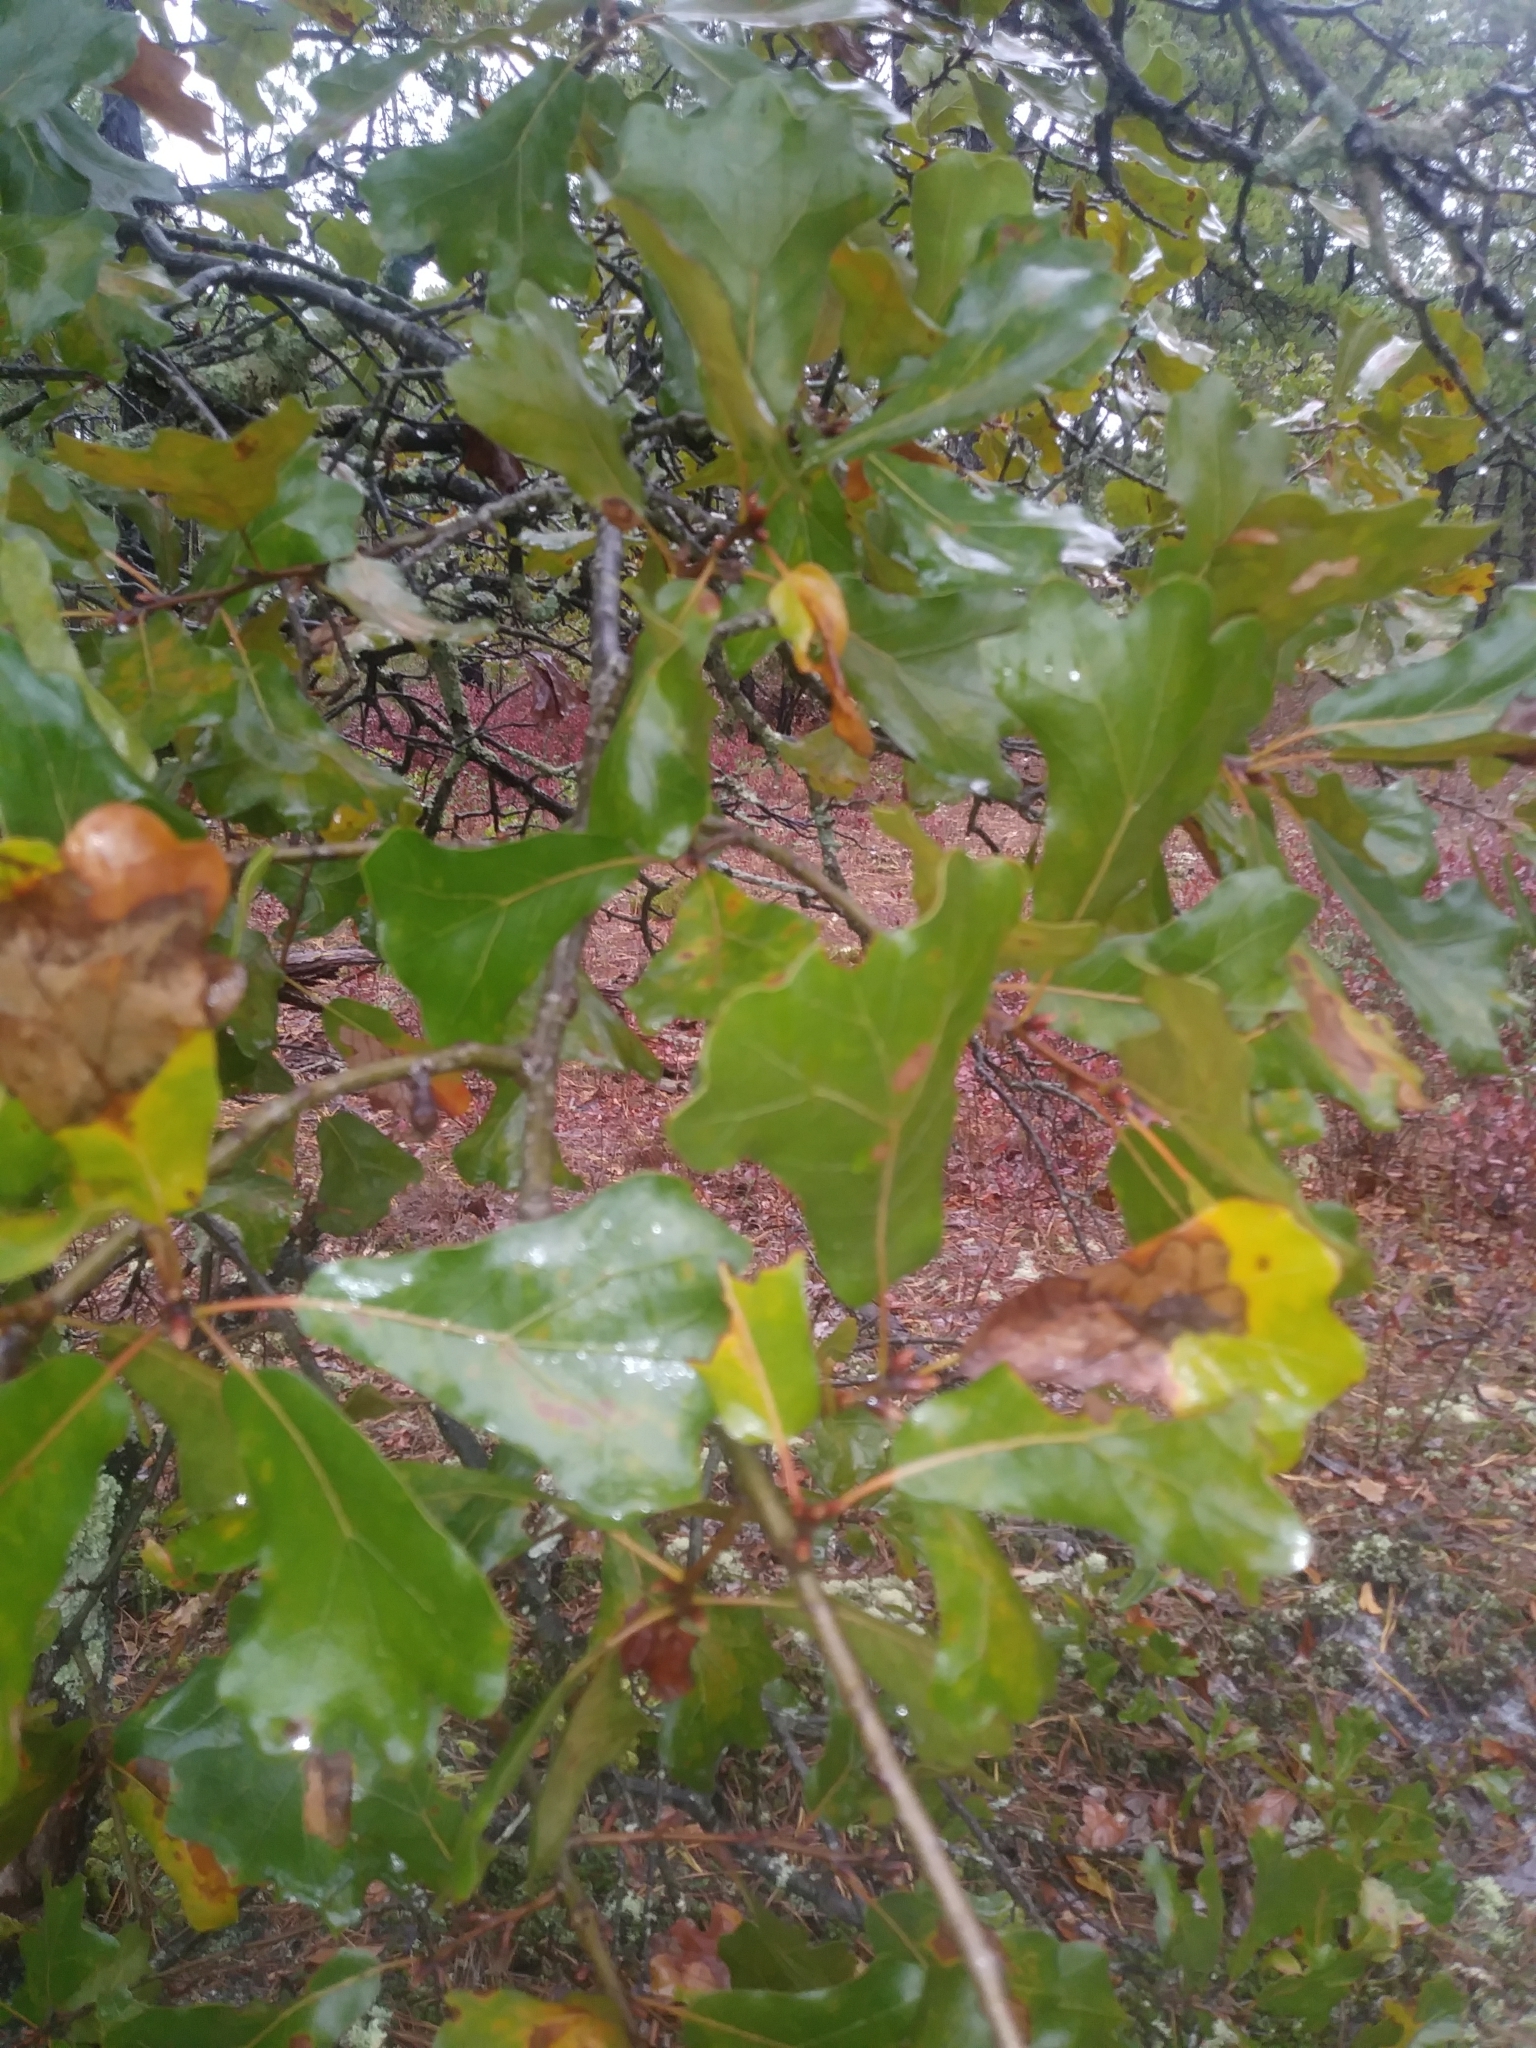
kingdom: Plantae
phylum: Tracheophyta
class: Magnoliopsida
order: Fagales
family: Fagaceae
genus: Quercus
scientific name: Quercus marilandica
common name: Blackjack oak
